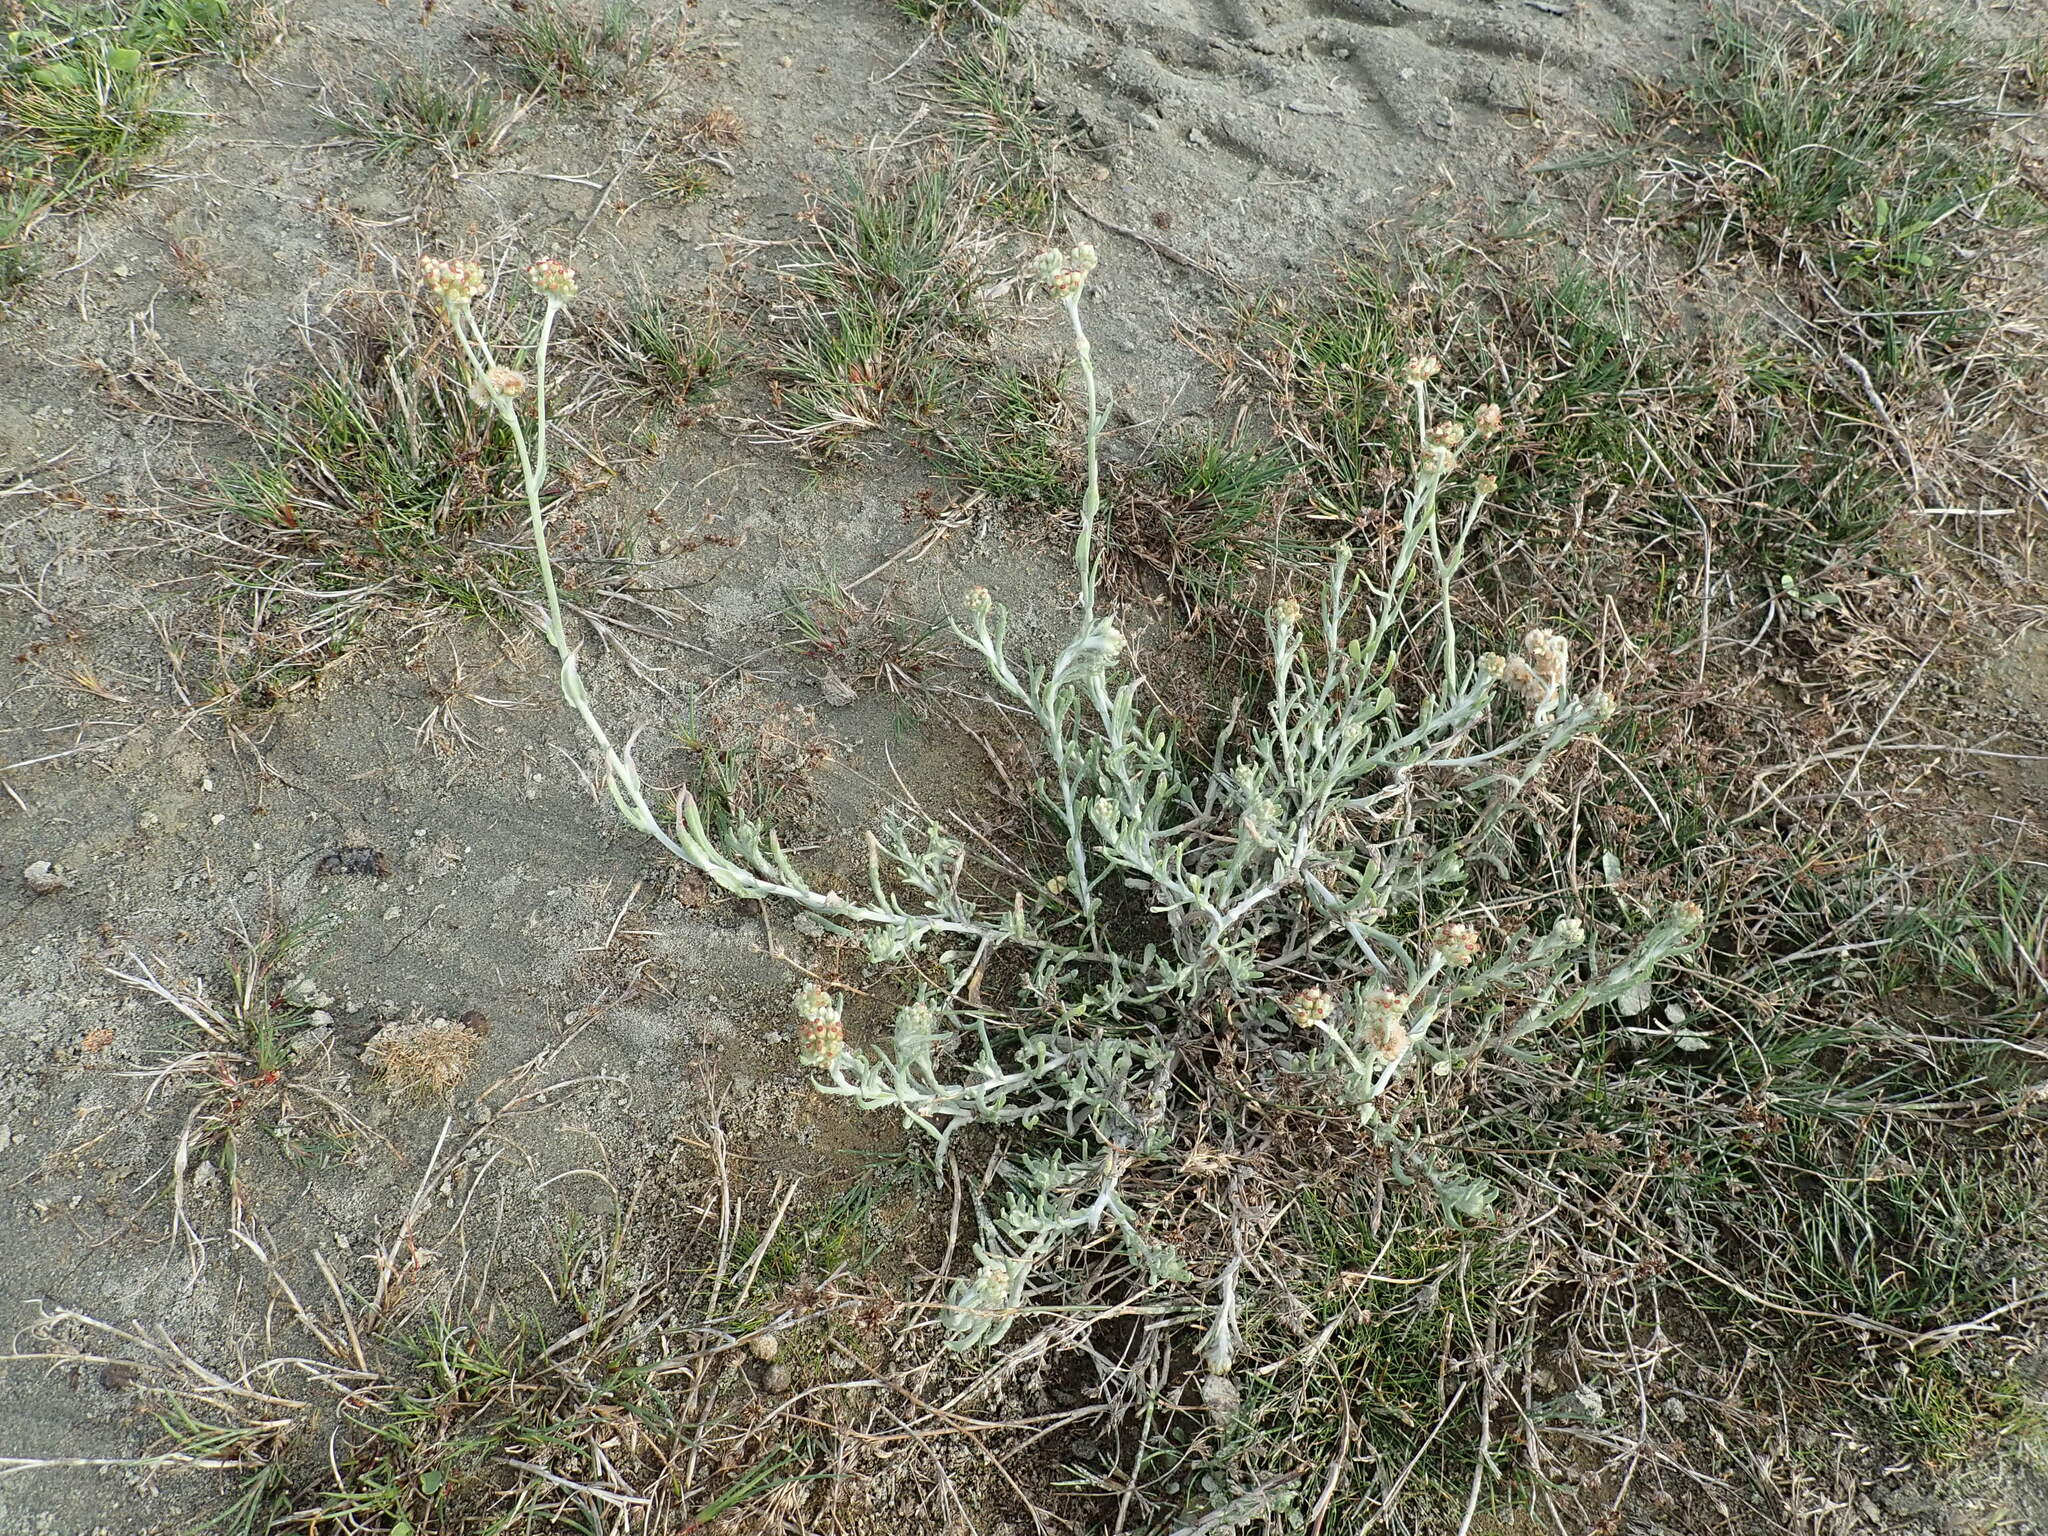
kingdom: Plantae
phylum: Tracheophyta
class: Magnoliopsida
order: Asterales
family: Asteraceae
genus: Helichrysum
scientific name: Helichrysum luteoalbum
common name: Daisy
